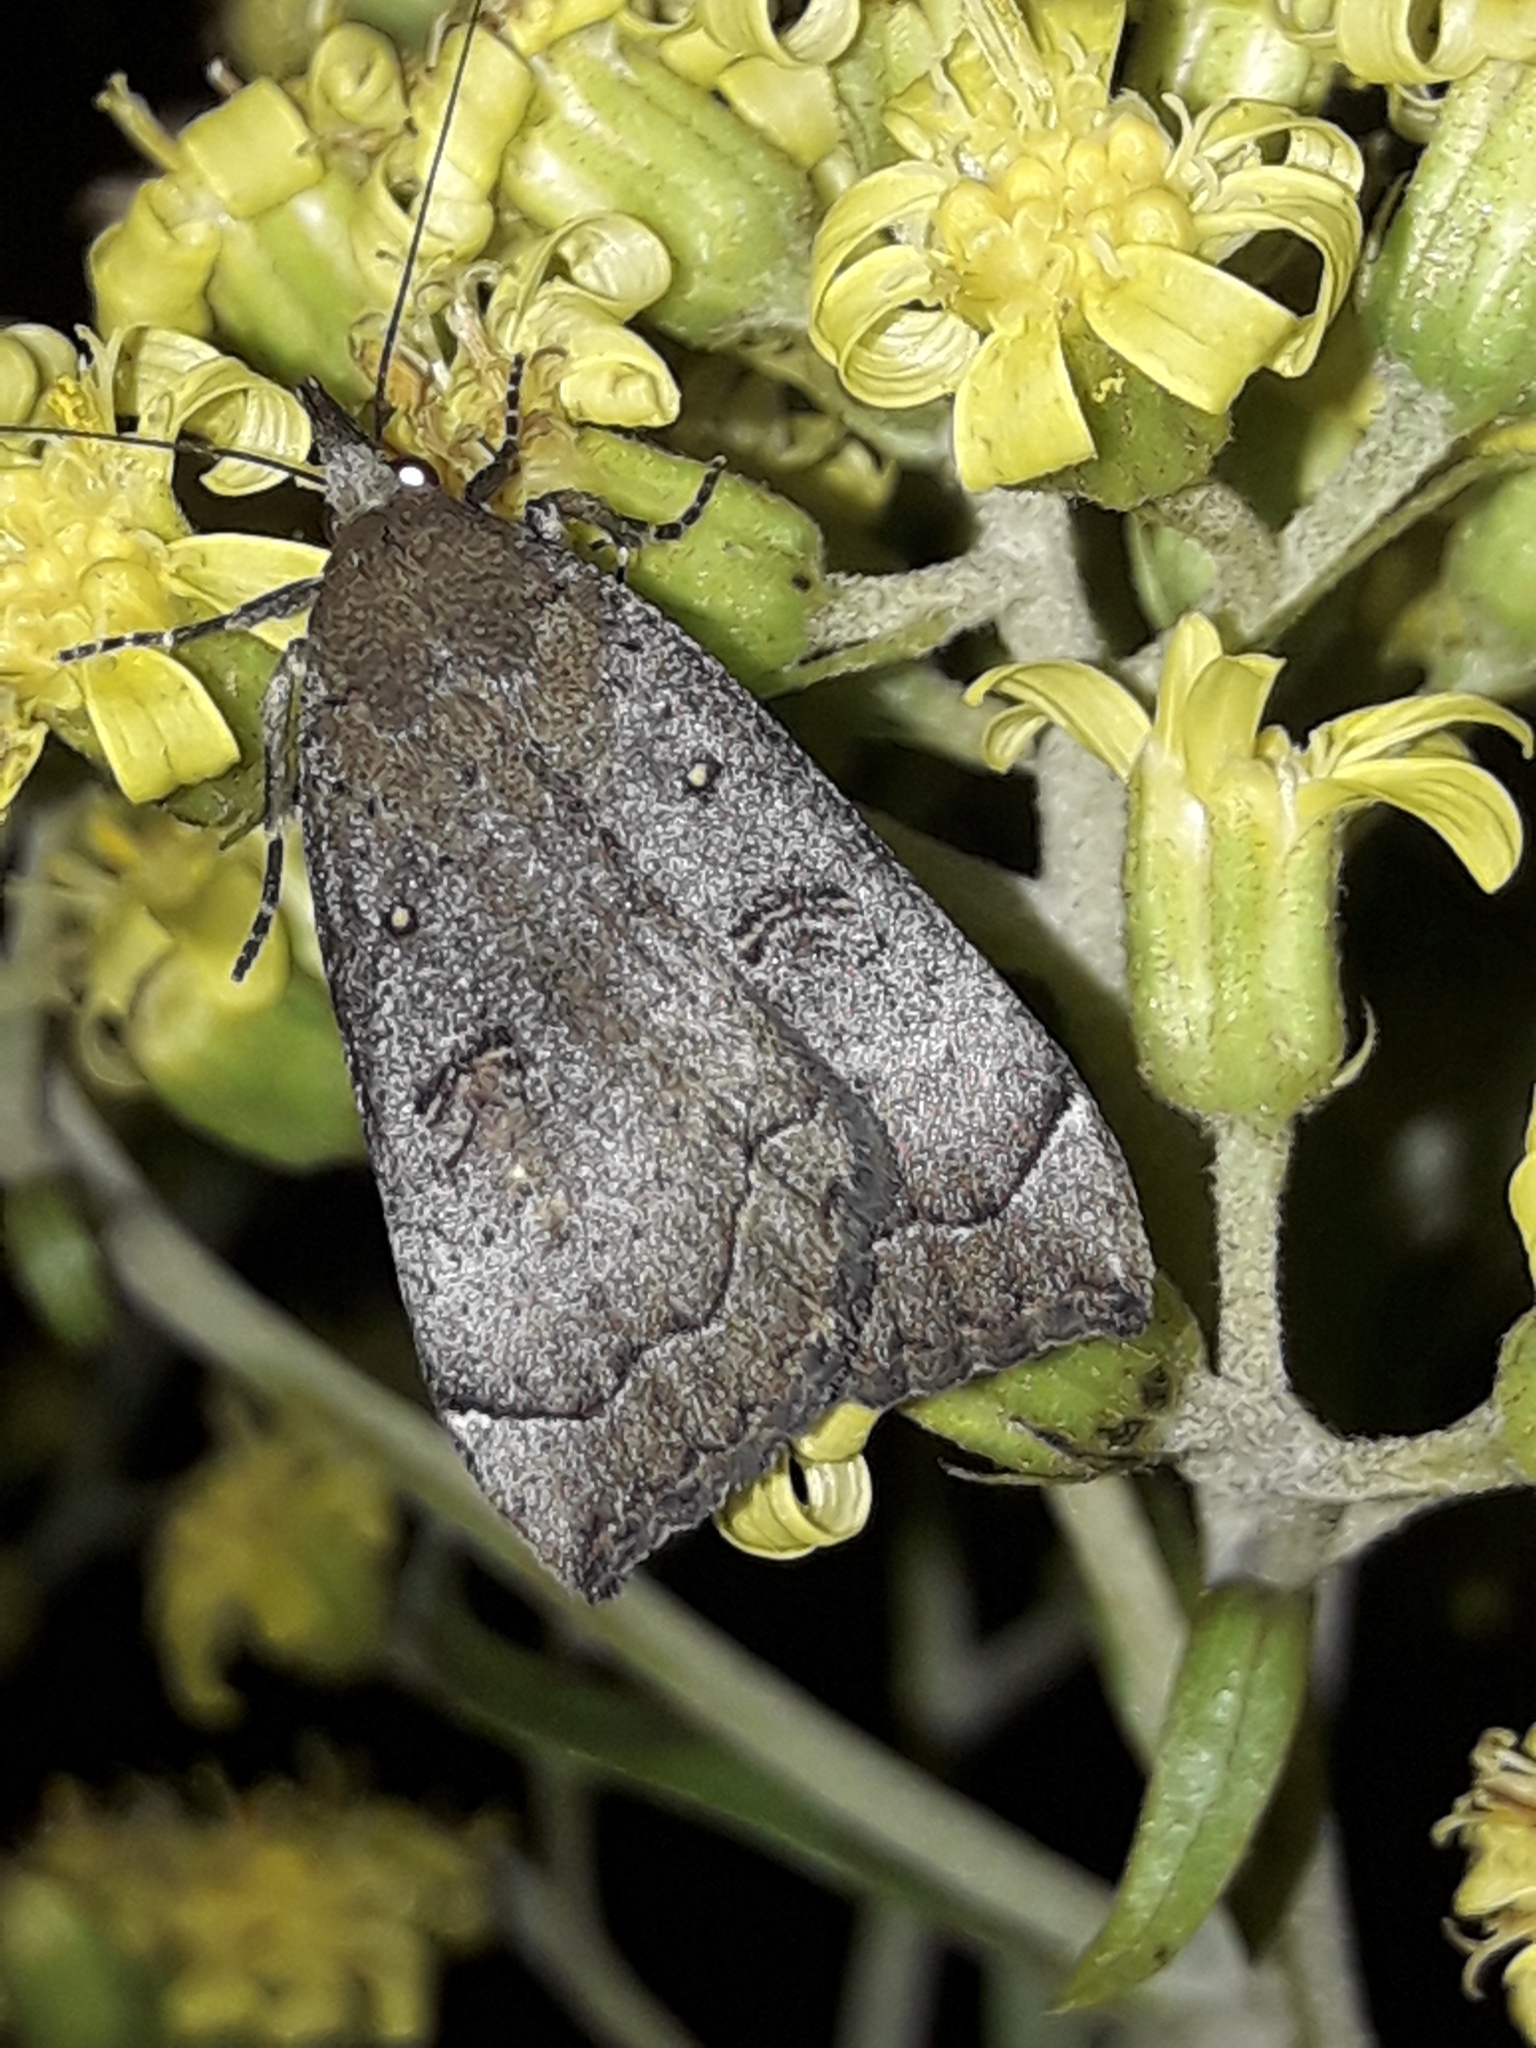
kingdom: Animalia
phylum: Arthropoda
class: Insecta
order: Lepidoptera
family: Erebidae
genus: Rhapsa
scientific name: Rhapsa scotosialis
